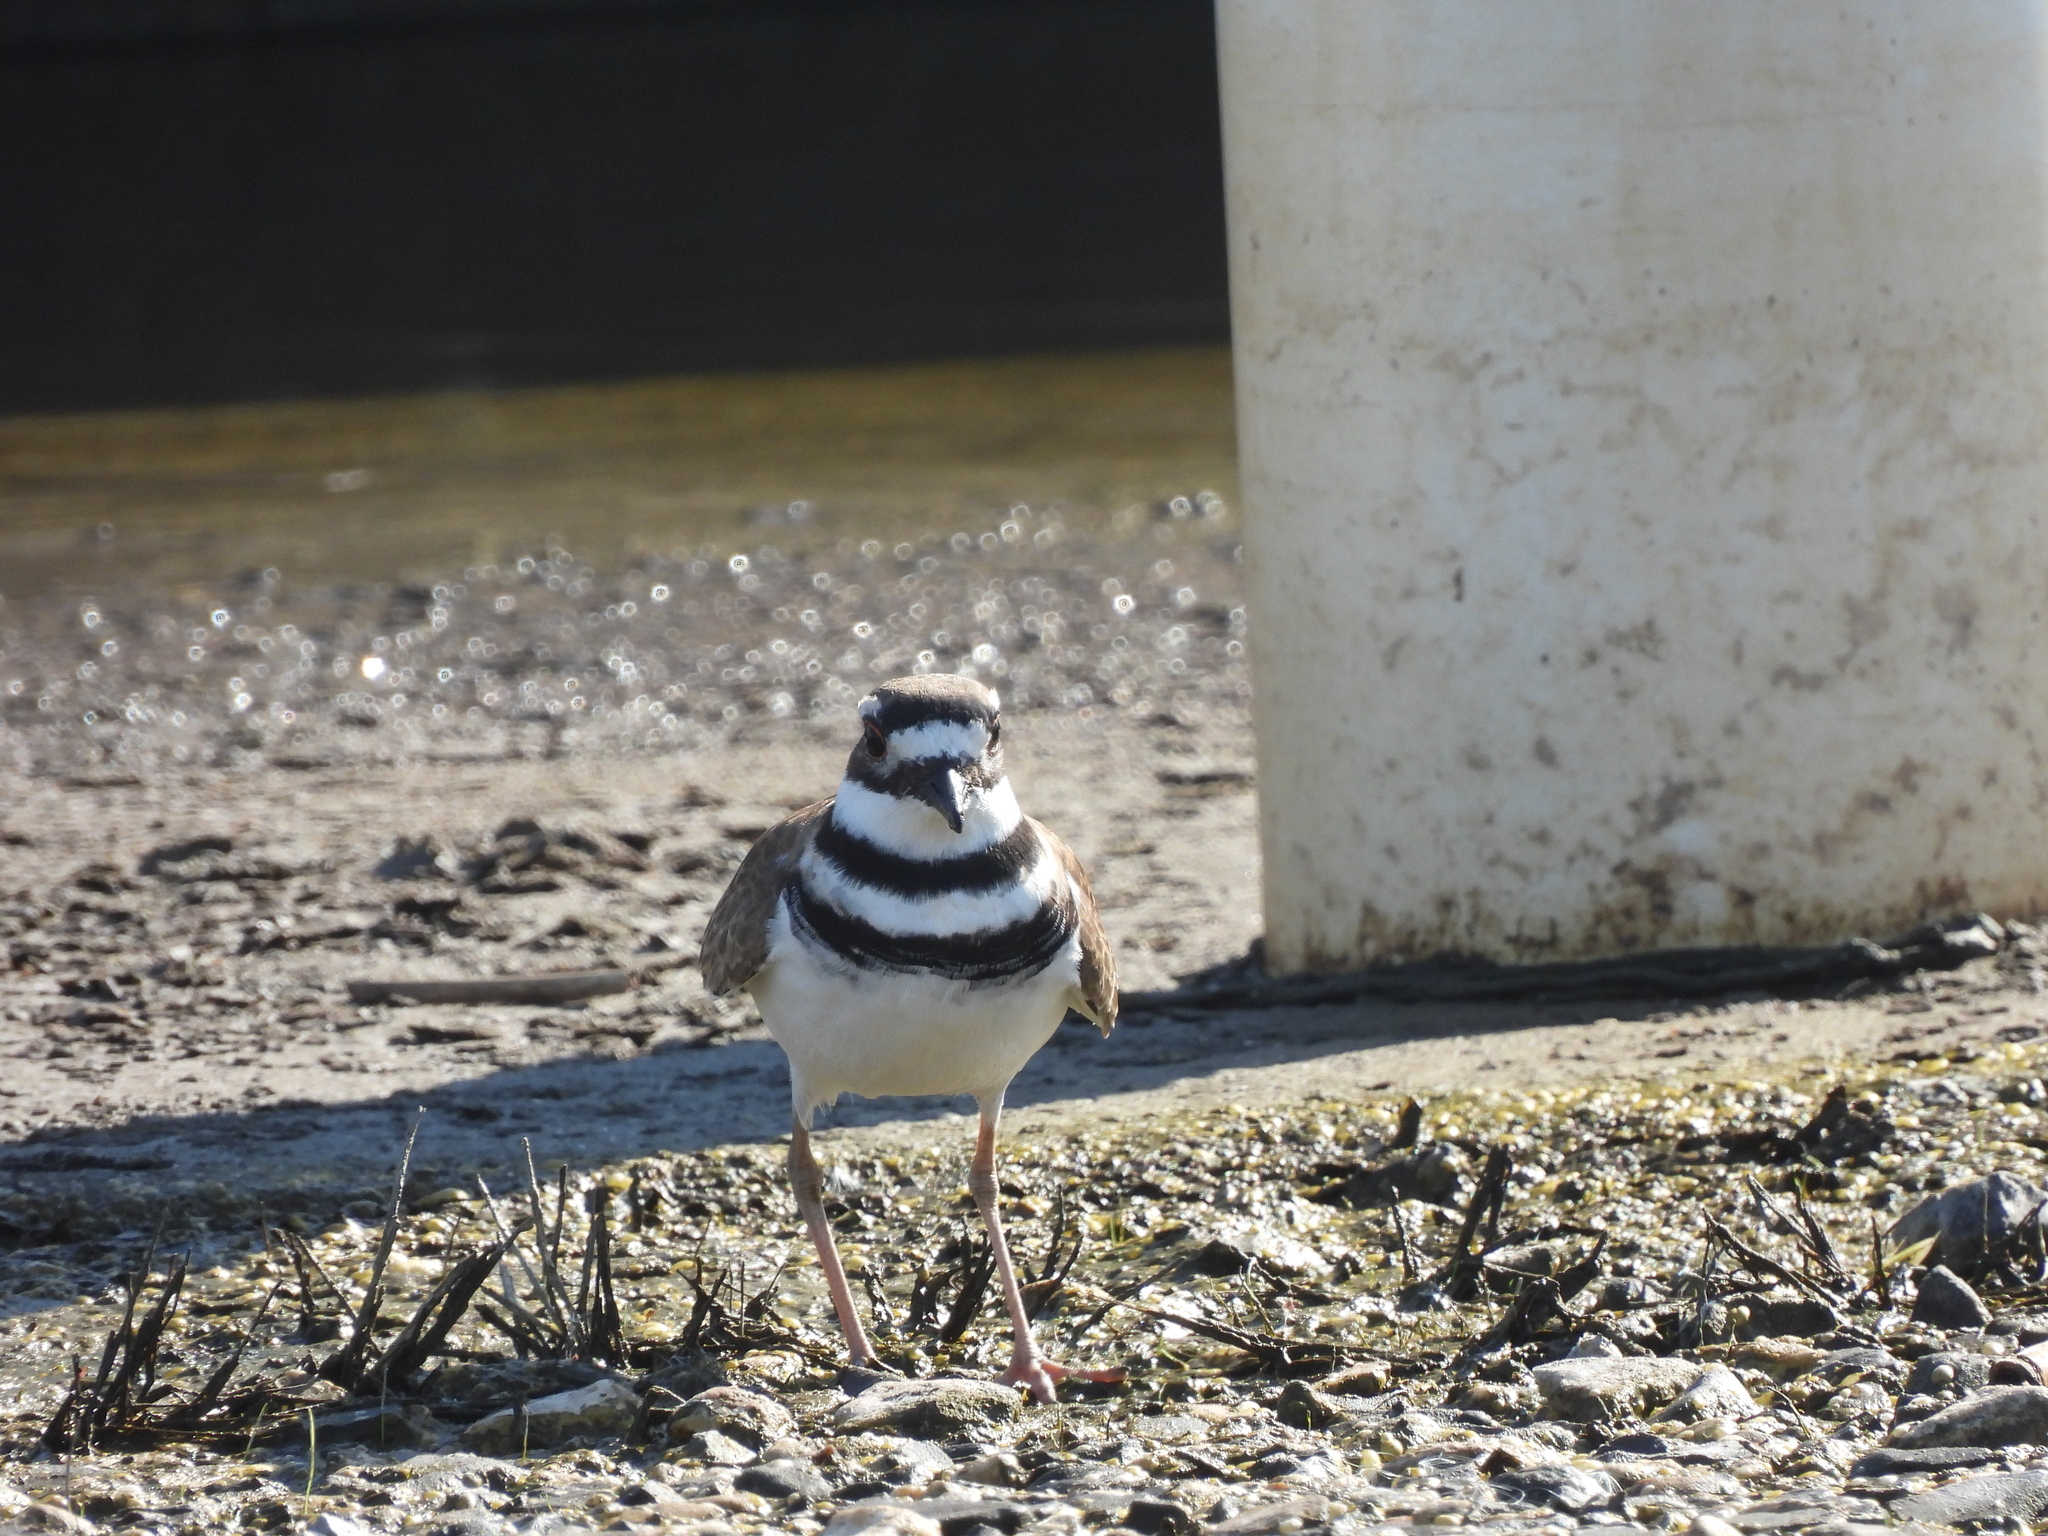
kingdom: Animalia
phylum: Chordata
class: Aves
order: Charadriiformes
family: Charadriidae
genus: Charadrius
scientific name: Charadrius vociferus
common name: Killdeer
